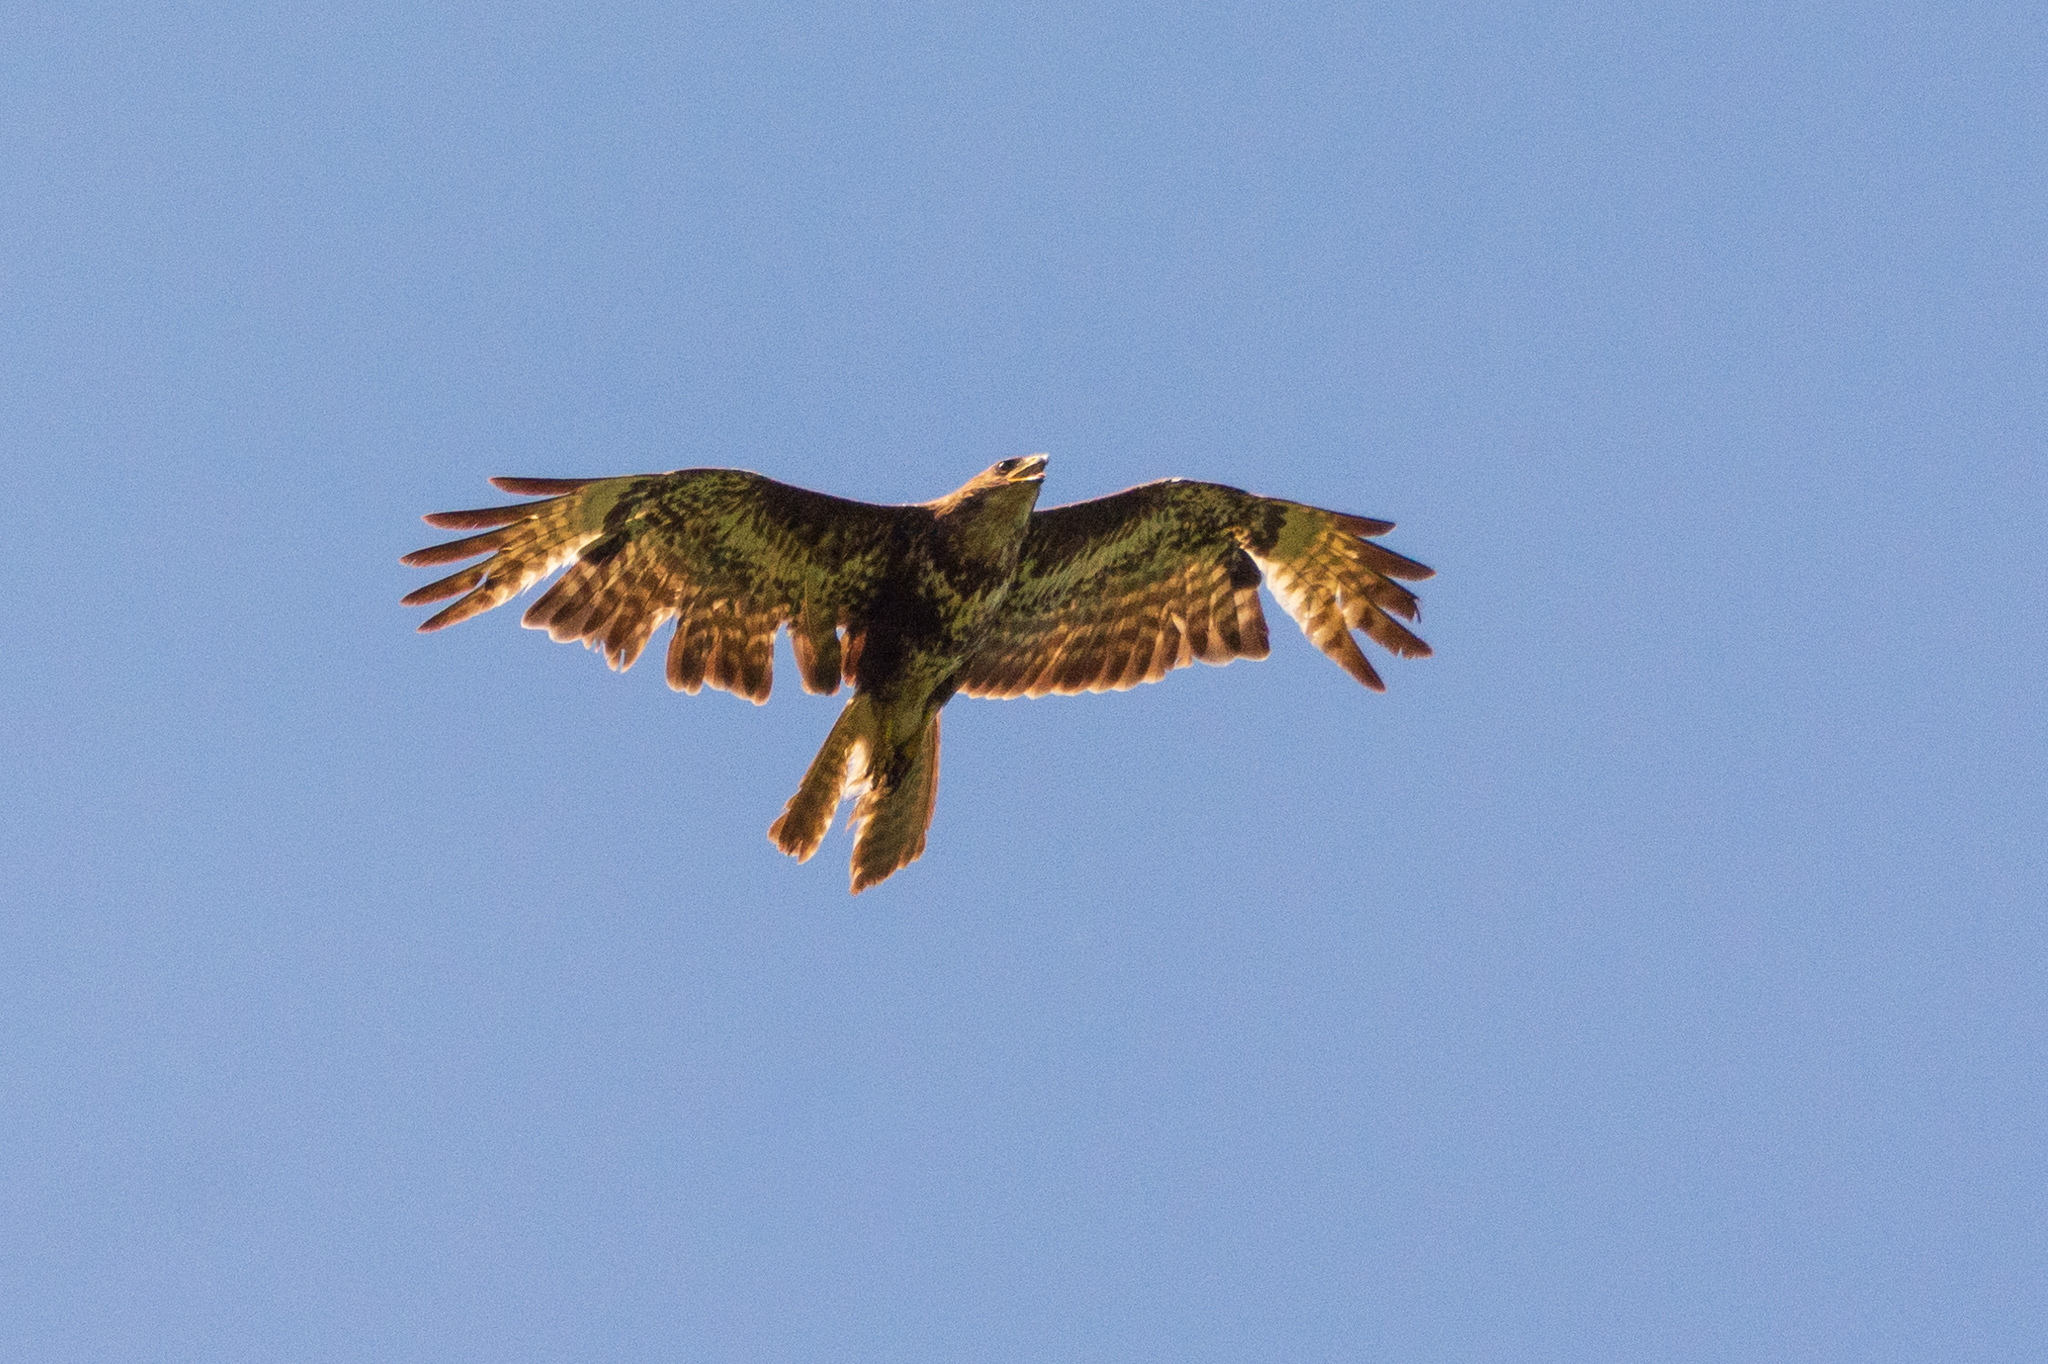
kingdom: Animalia
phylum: Chordata
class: Aves
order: Accipitriformes
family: Accipitridae
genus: Buteo
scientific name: Buteo buteo
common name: Common buzzard
